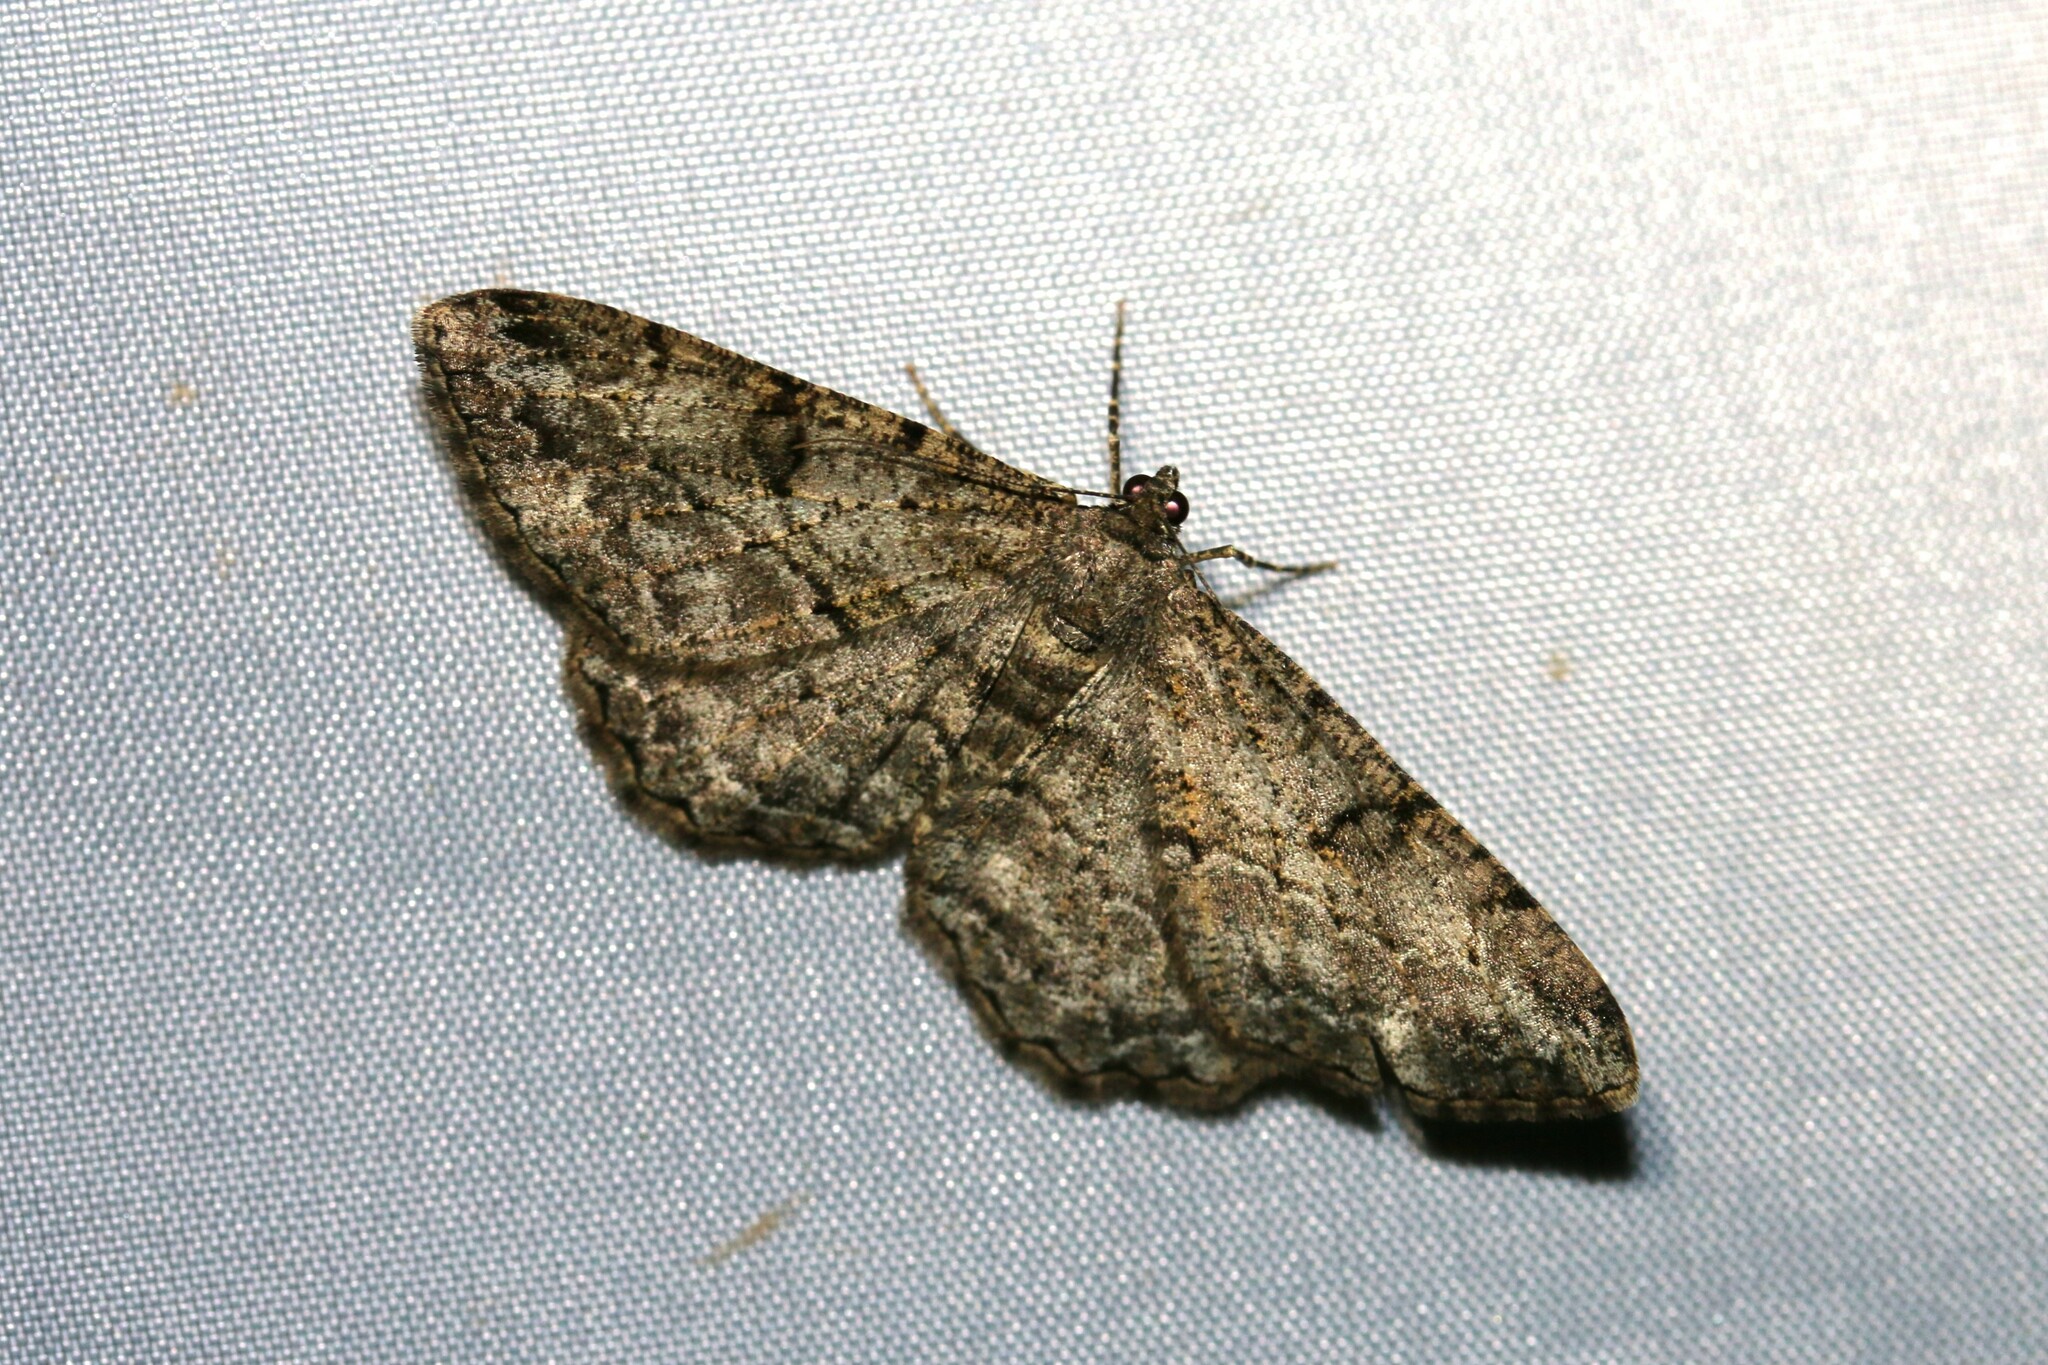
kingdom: Animalia
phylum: Arthropoda
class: Insecta
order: Lepidoptera
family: Geometridae
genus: Peribatodes
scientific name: Peribatodes rhomboidaria
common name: Willow beauty
